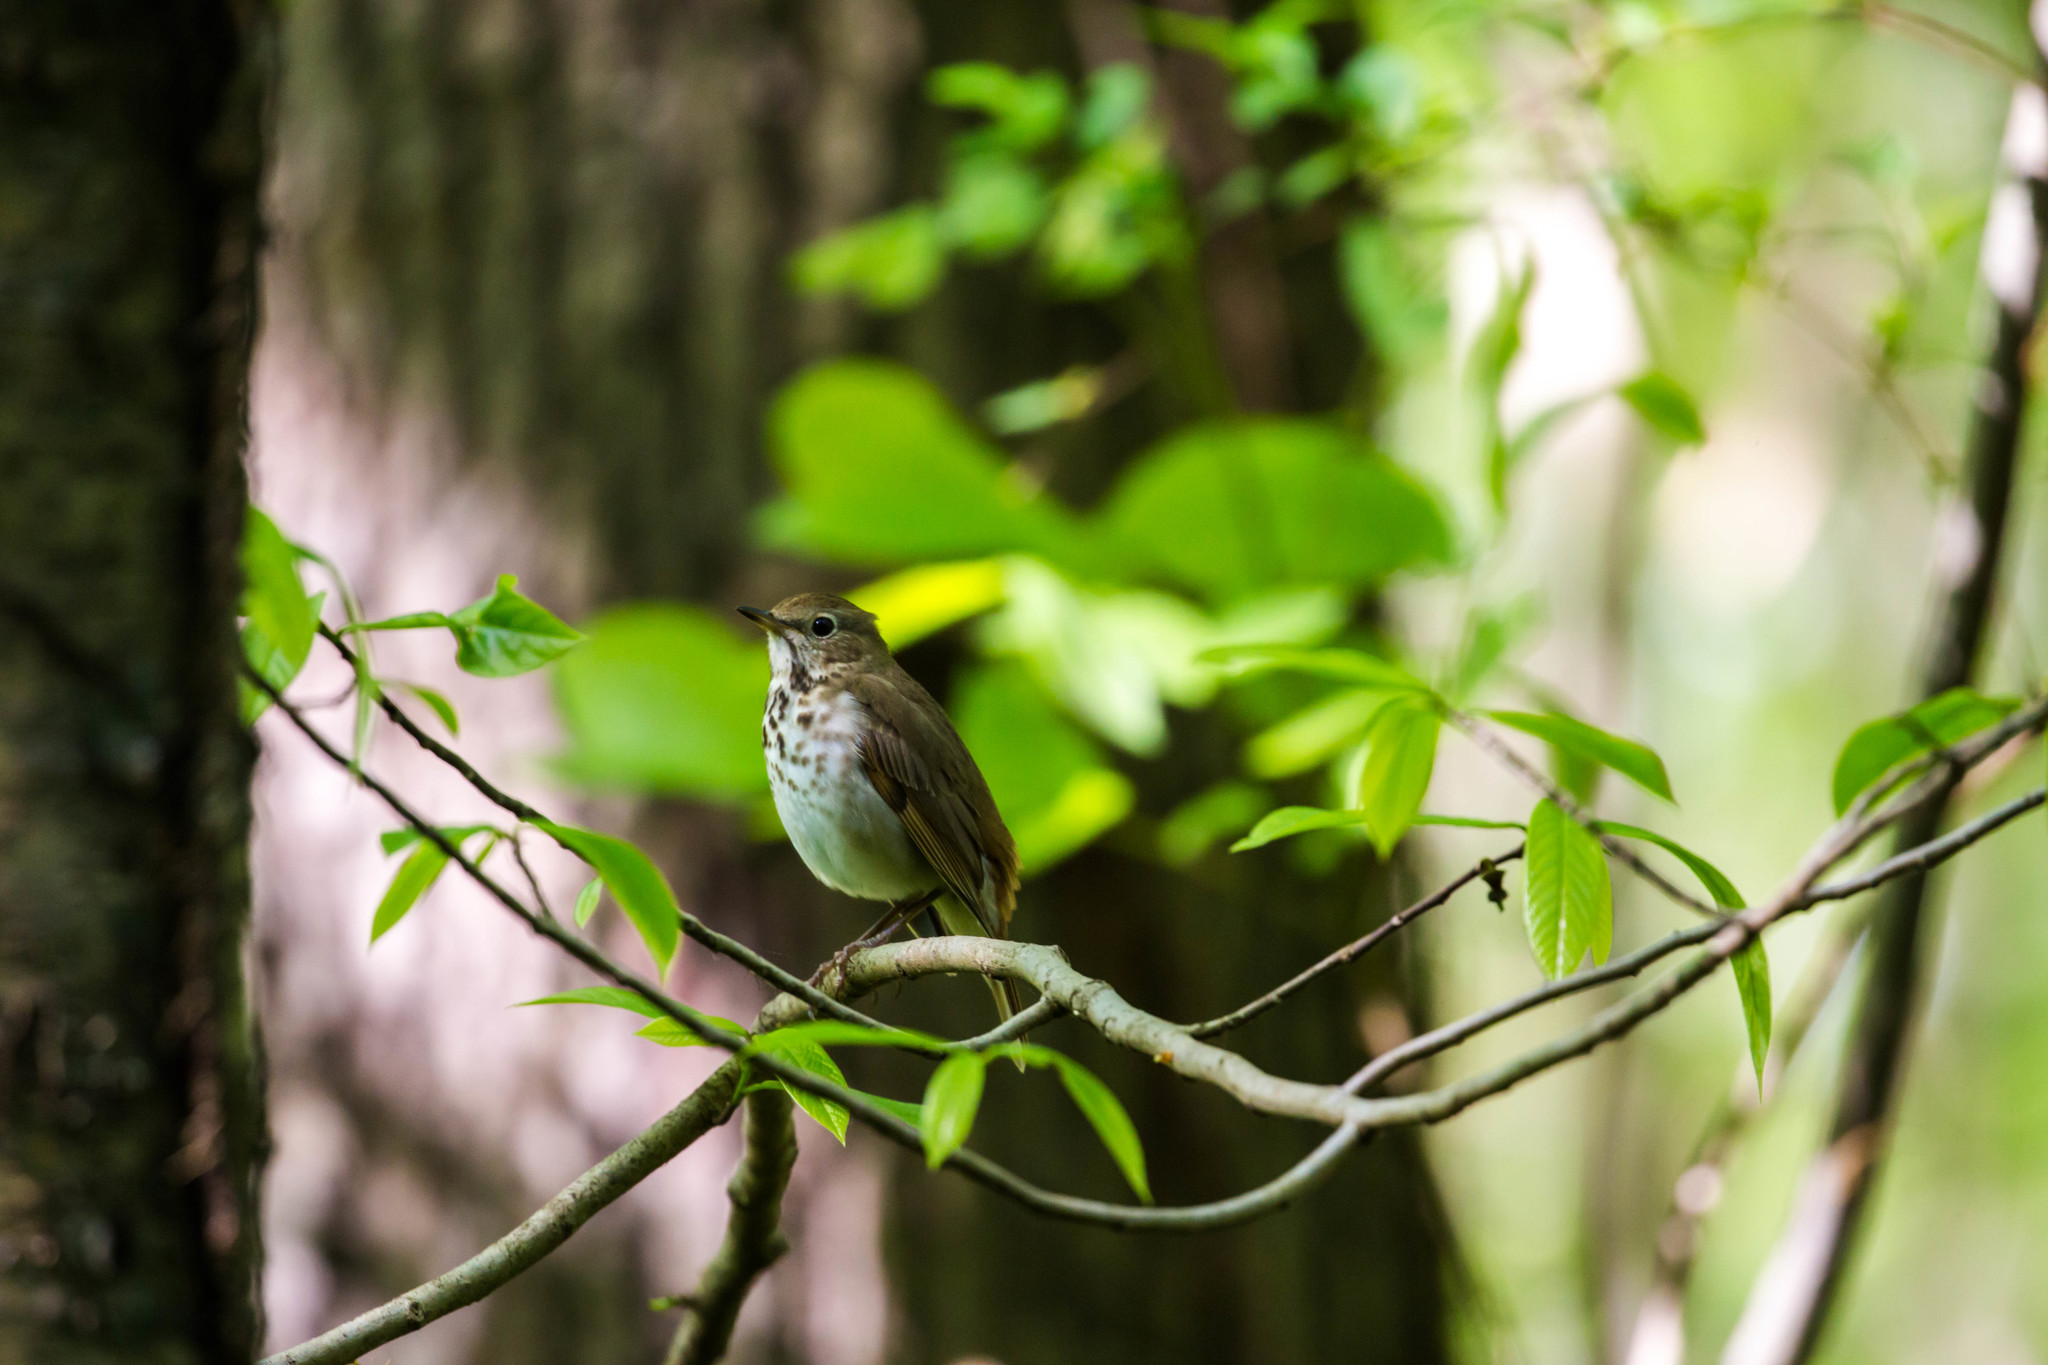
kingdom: Animalia
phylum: Chordata
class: Aves
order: Passeriformes
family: Turdidae
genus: Catharus
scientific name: Catharus guttatus
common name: Hermit thrush
